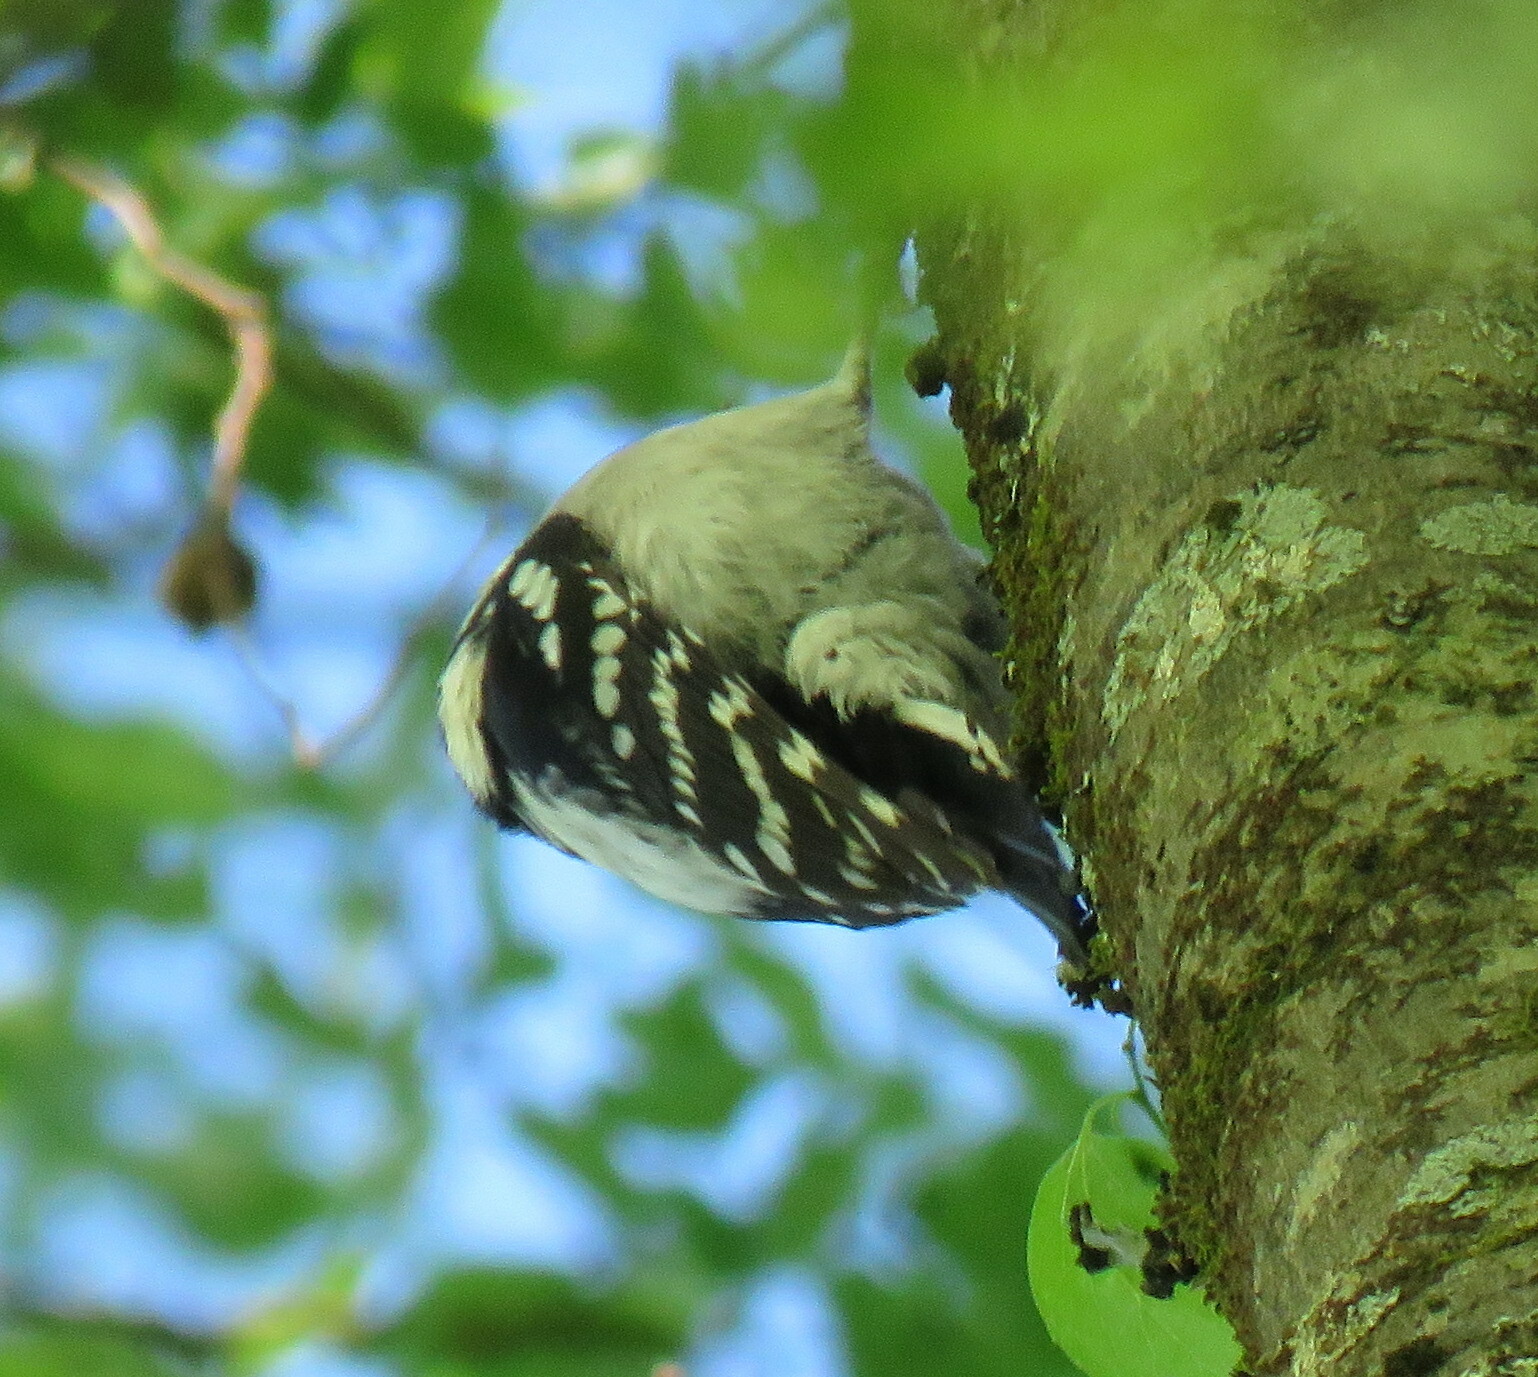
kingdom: Animalia
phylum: Chordata
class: Aves
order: Piciformes
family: Picidae
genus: Dryobates
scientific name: Dryobates pubescens
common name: Downy woodpecker
